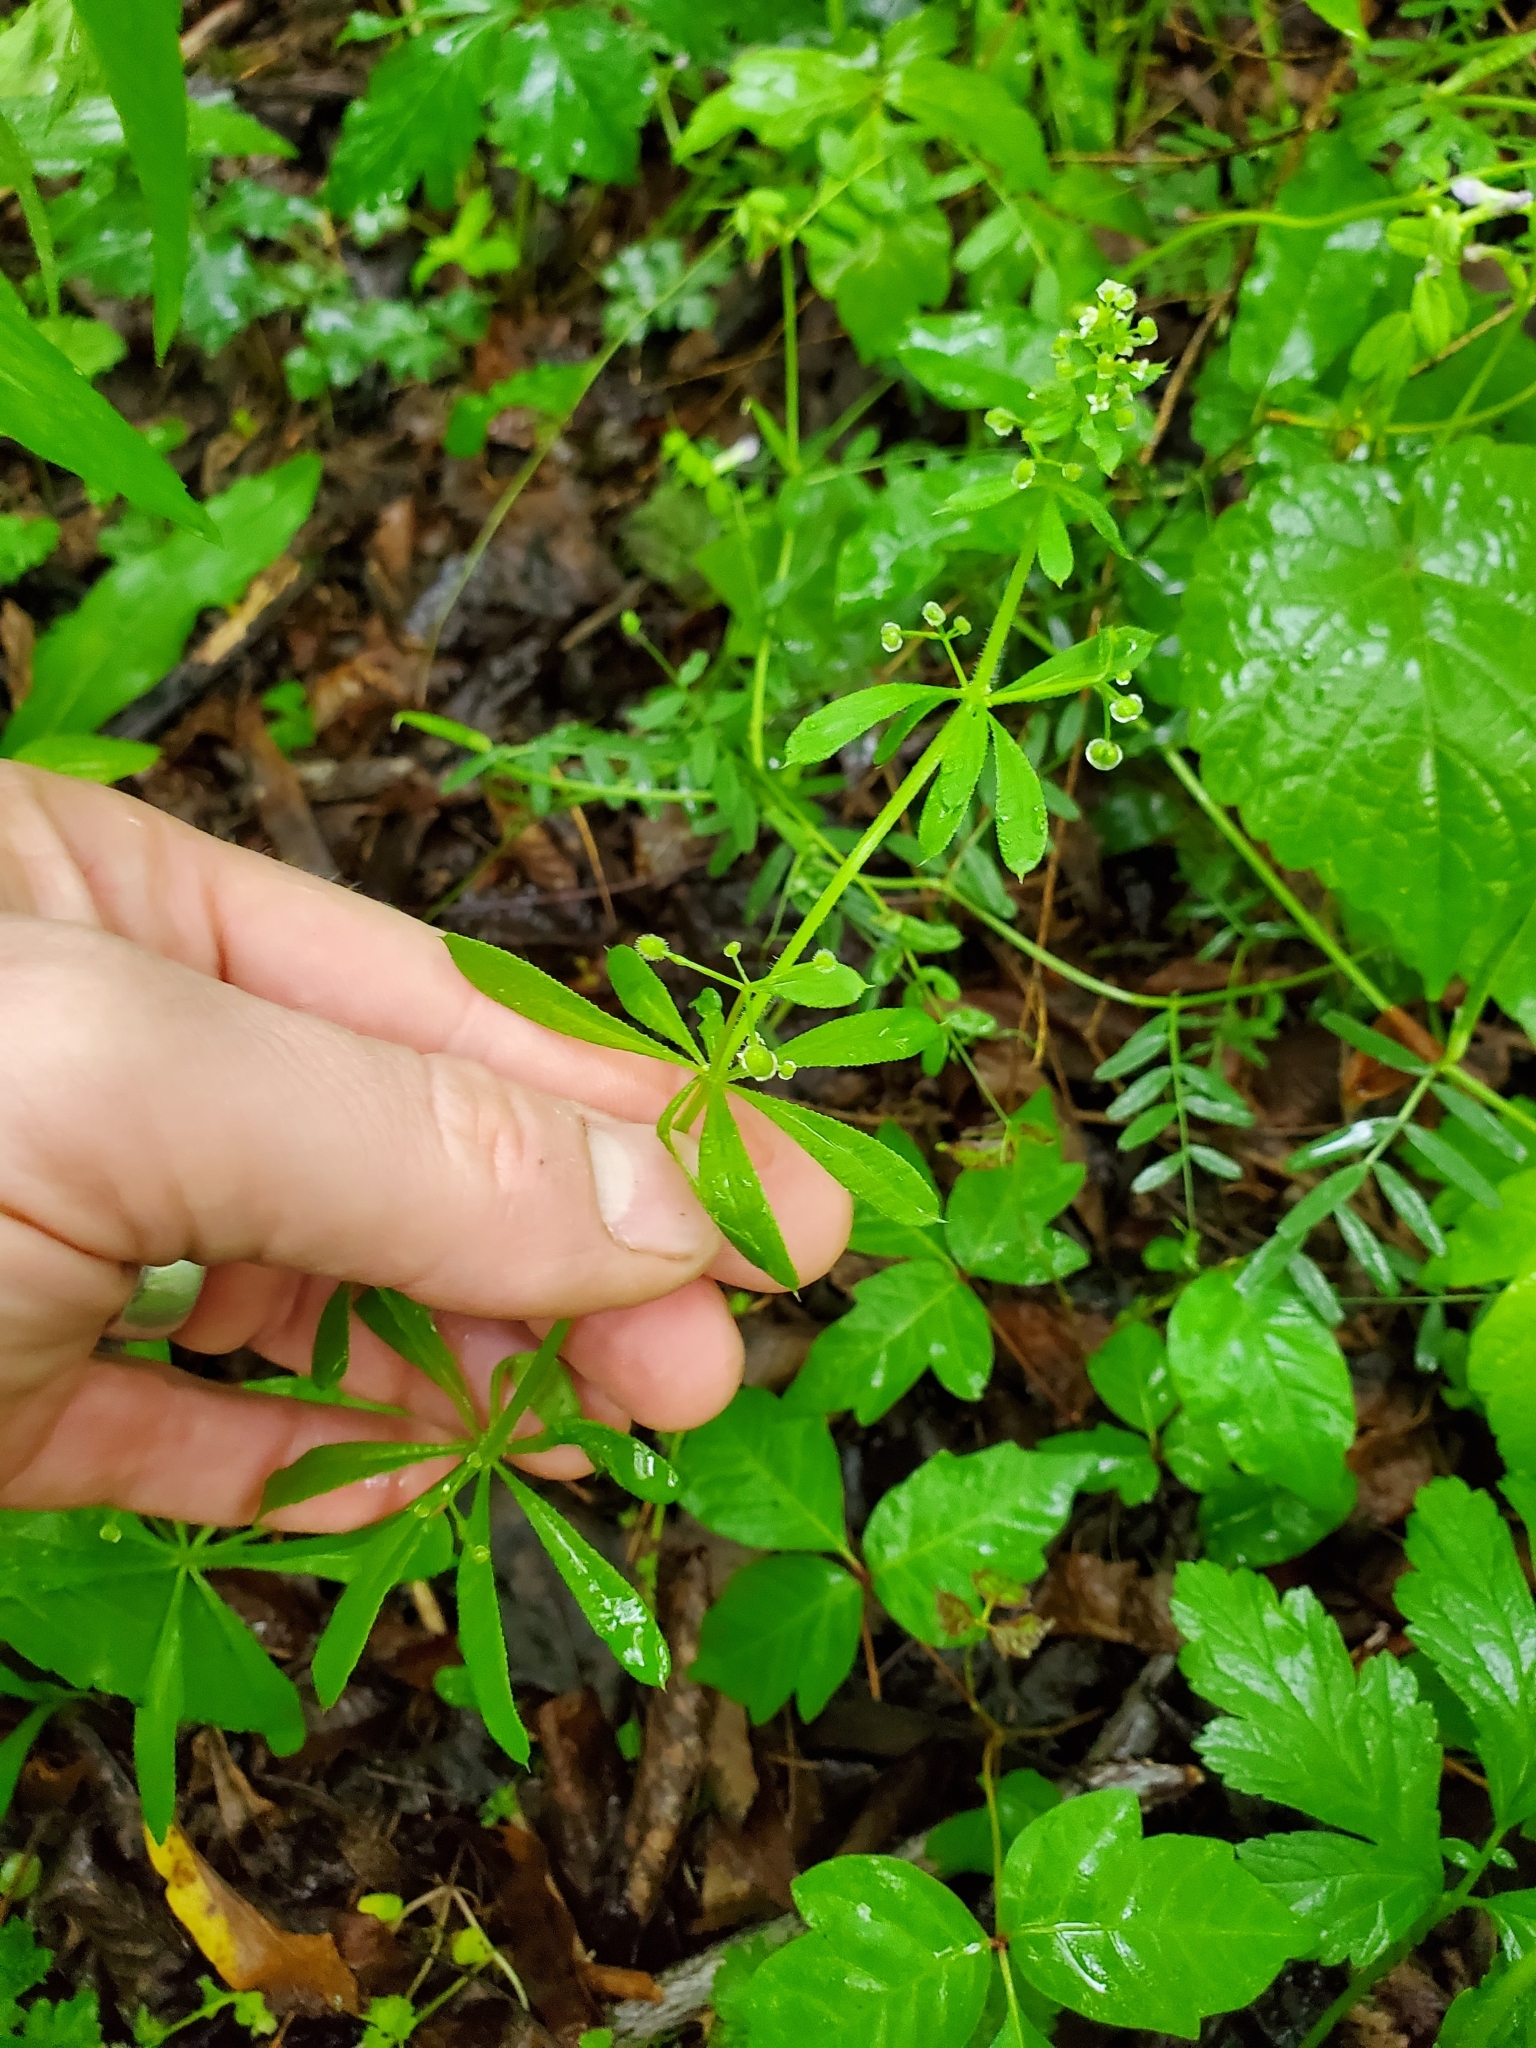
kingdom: Plantae
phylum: Tracheophyta
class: Magnoliopsida
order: Gentianales
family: Rubiaceae
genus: Galium
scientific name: Galium aparine
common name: Cleavers
